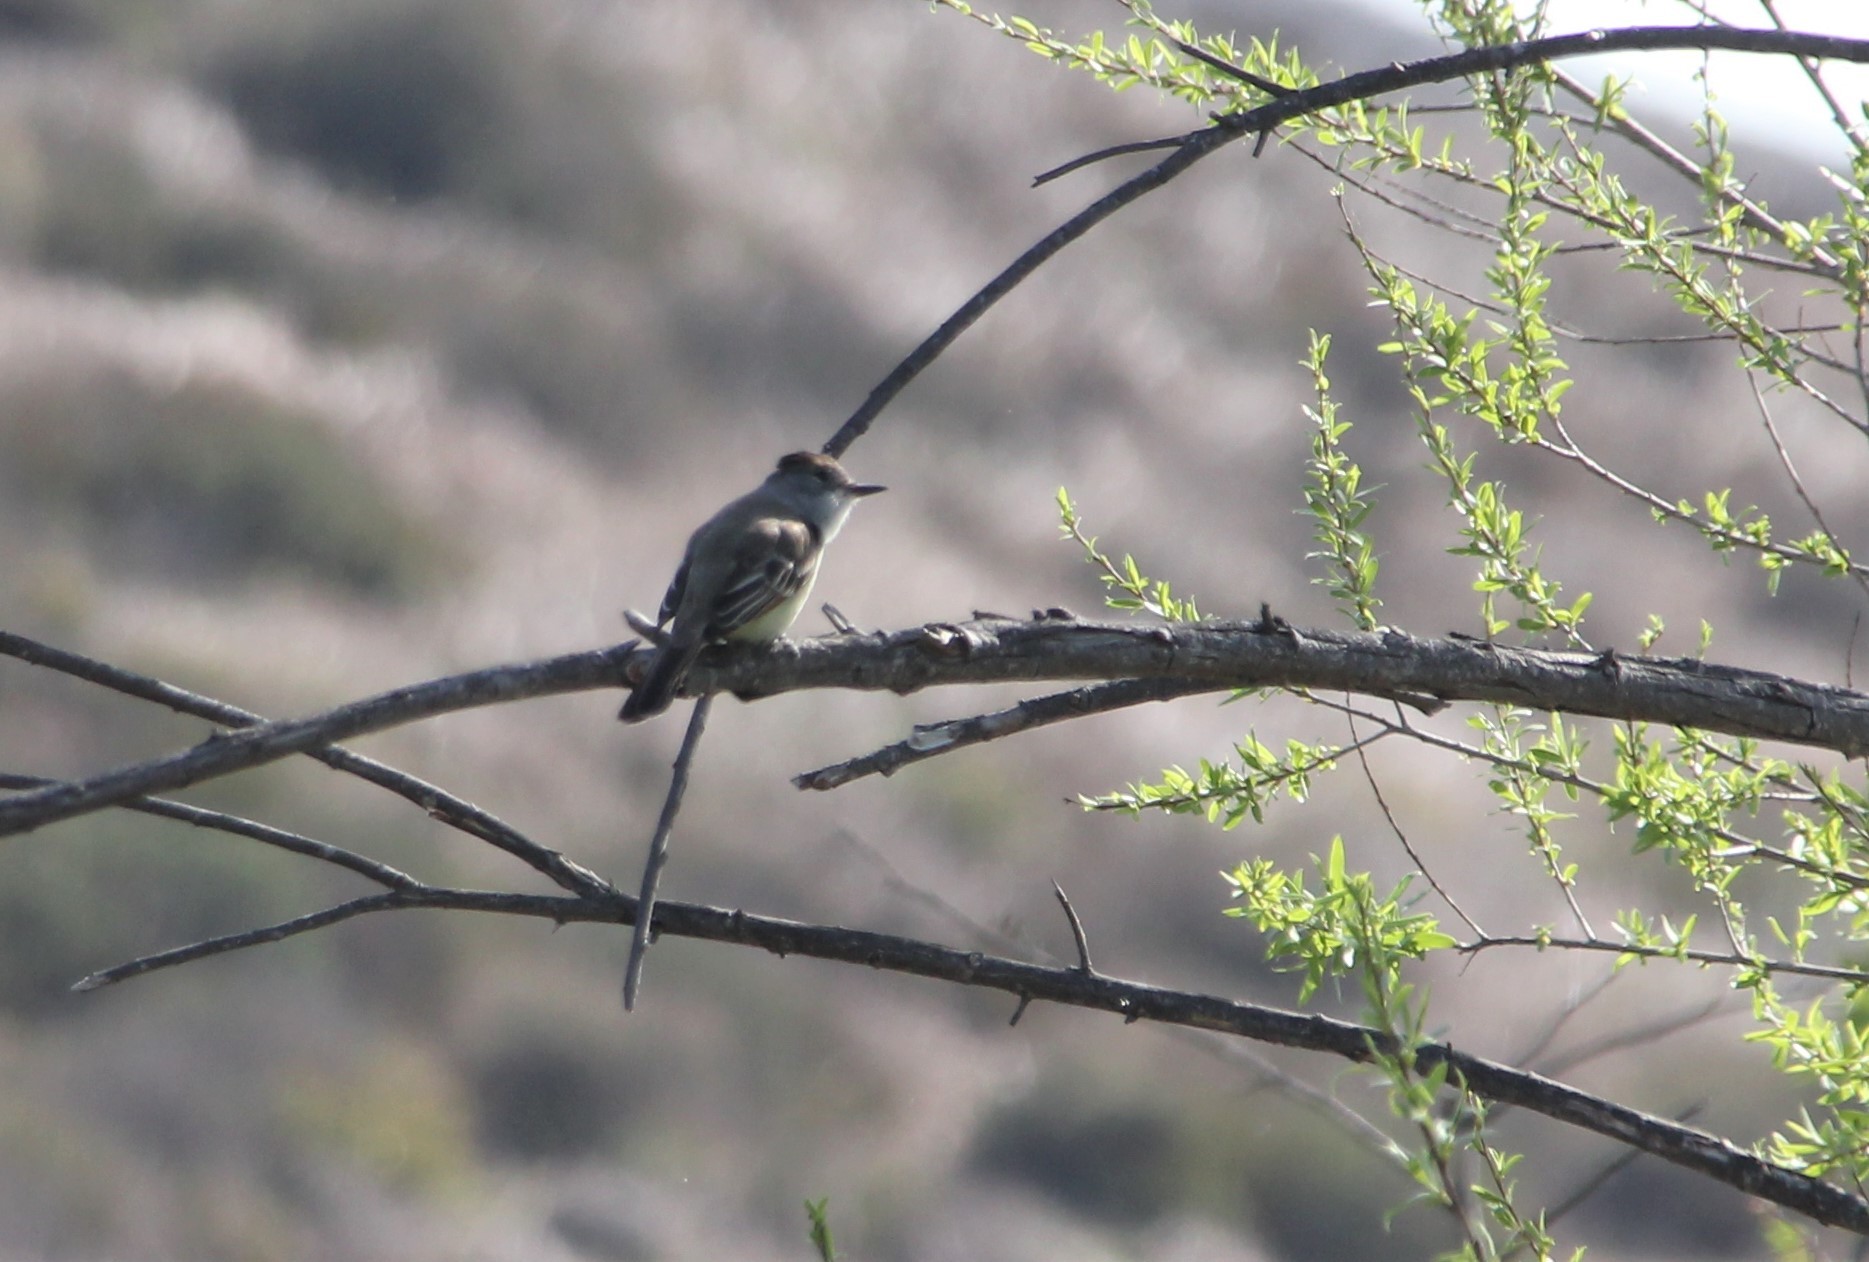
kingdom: Animalia
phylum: Chordata
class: Aves
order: Passeriformes
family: Tyrannidae
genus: Myiarchus
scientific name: Myiarchus cinerascens
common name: Ash-throated flycatcher
